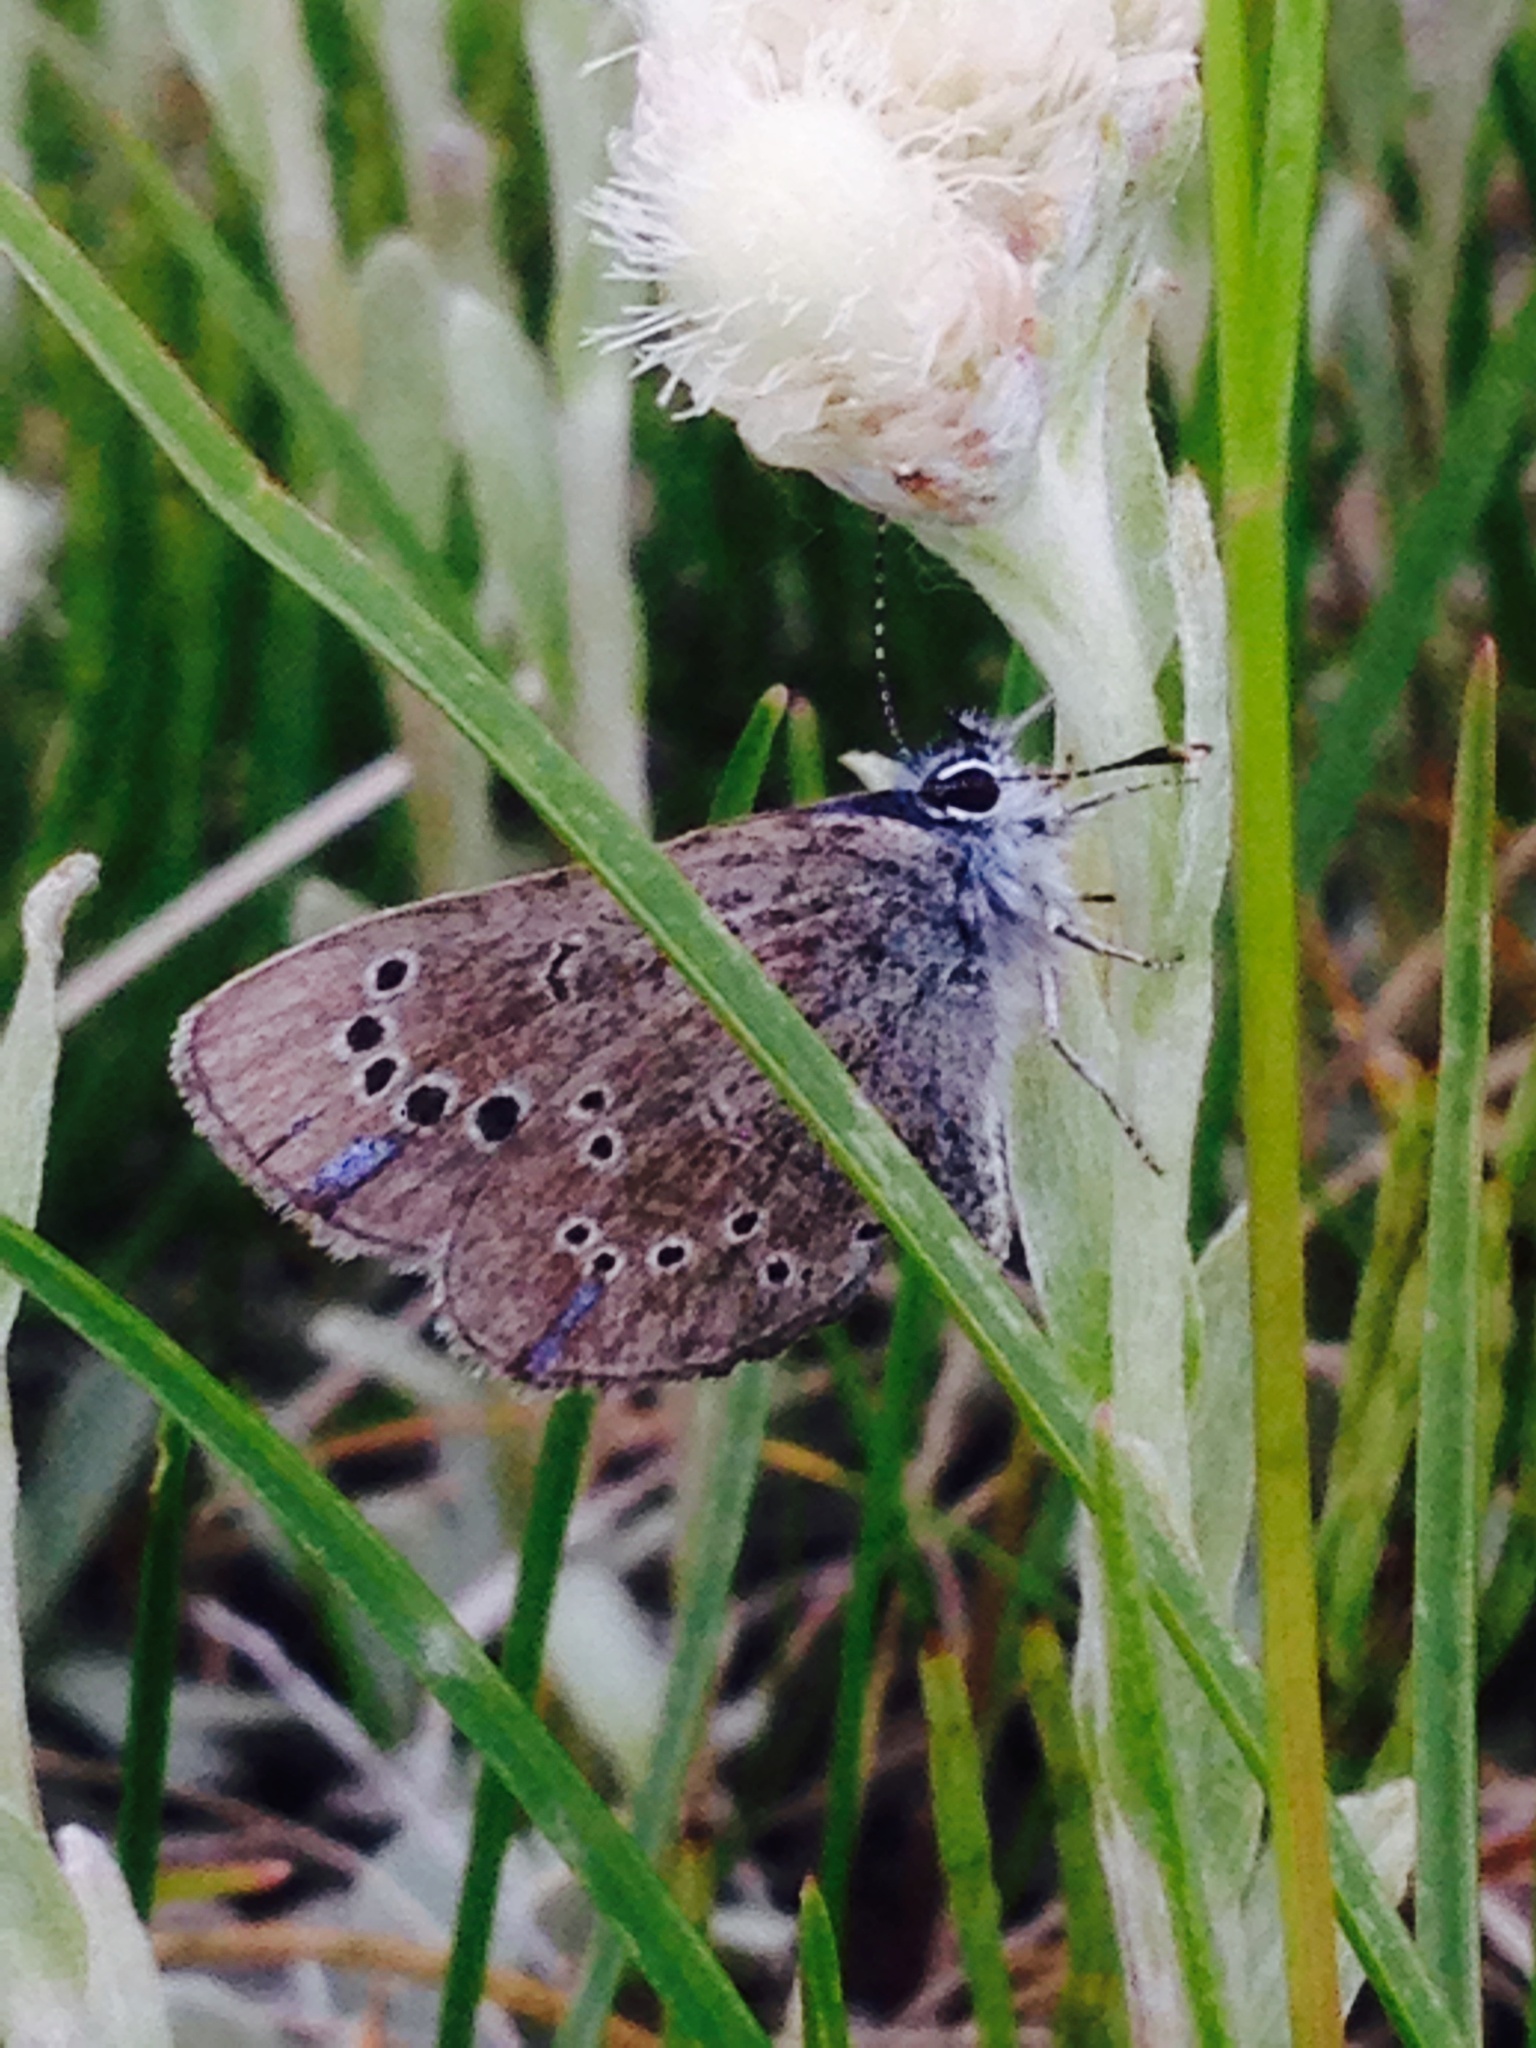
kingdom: Animalia
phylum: Arthropoda
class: Insecta
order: Lepidoptera
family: Lycaenidae
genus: Glaucopsyche
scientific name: Glaucopsyche lygdamus
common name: Silvery blue
